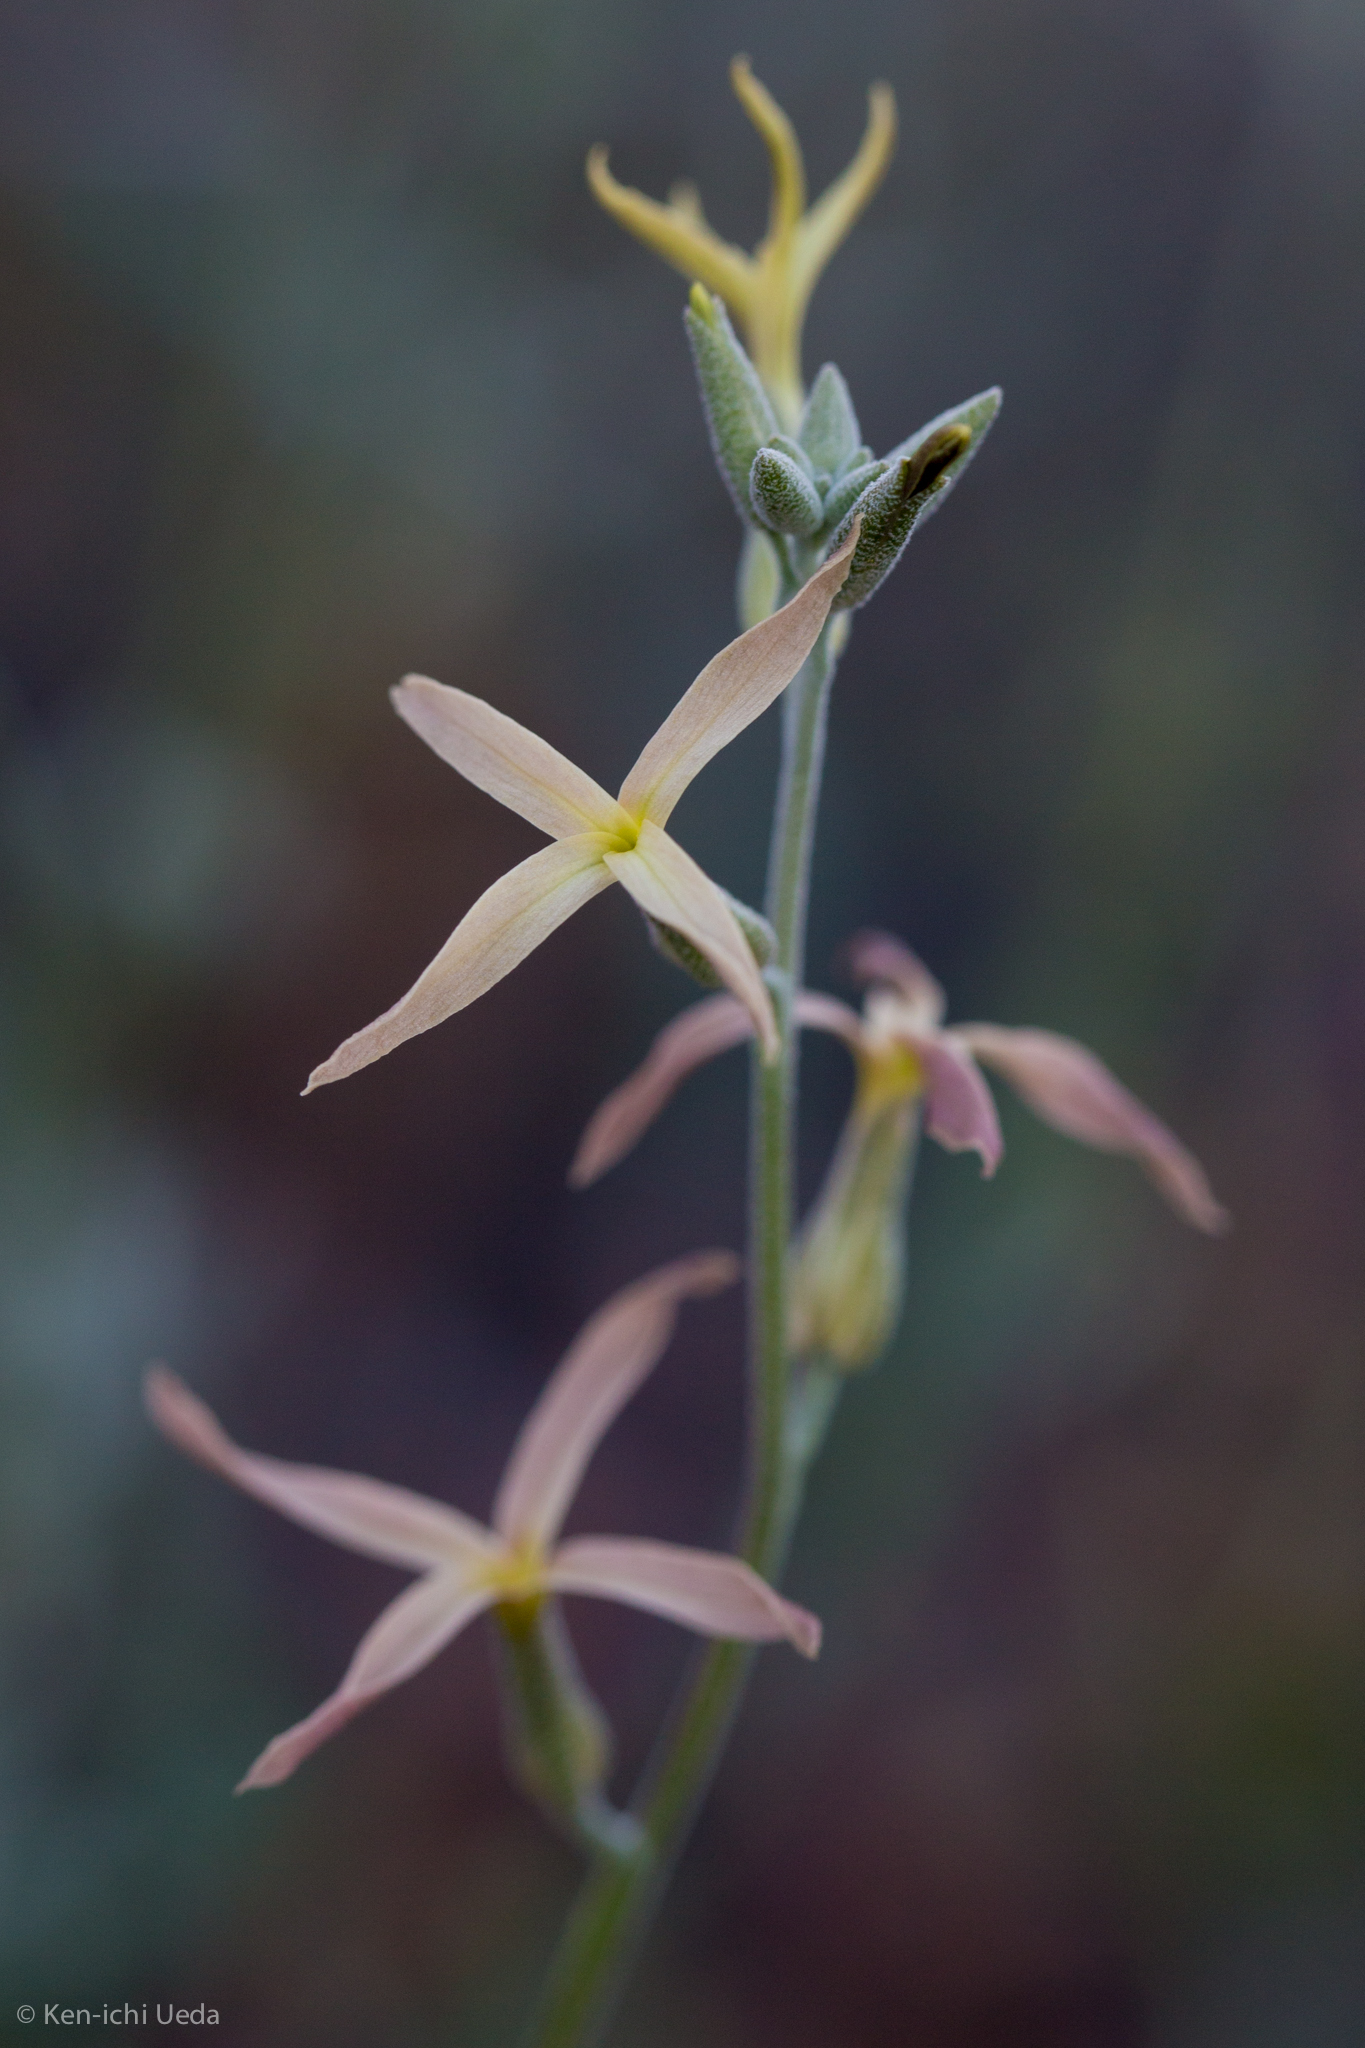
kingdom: Plantae
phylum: Tracheophyta
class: Magnoliopsida
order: Brassicales
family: Brassicaceae
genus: Lyrocarpa
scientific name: Lyrocarpa coulteri
